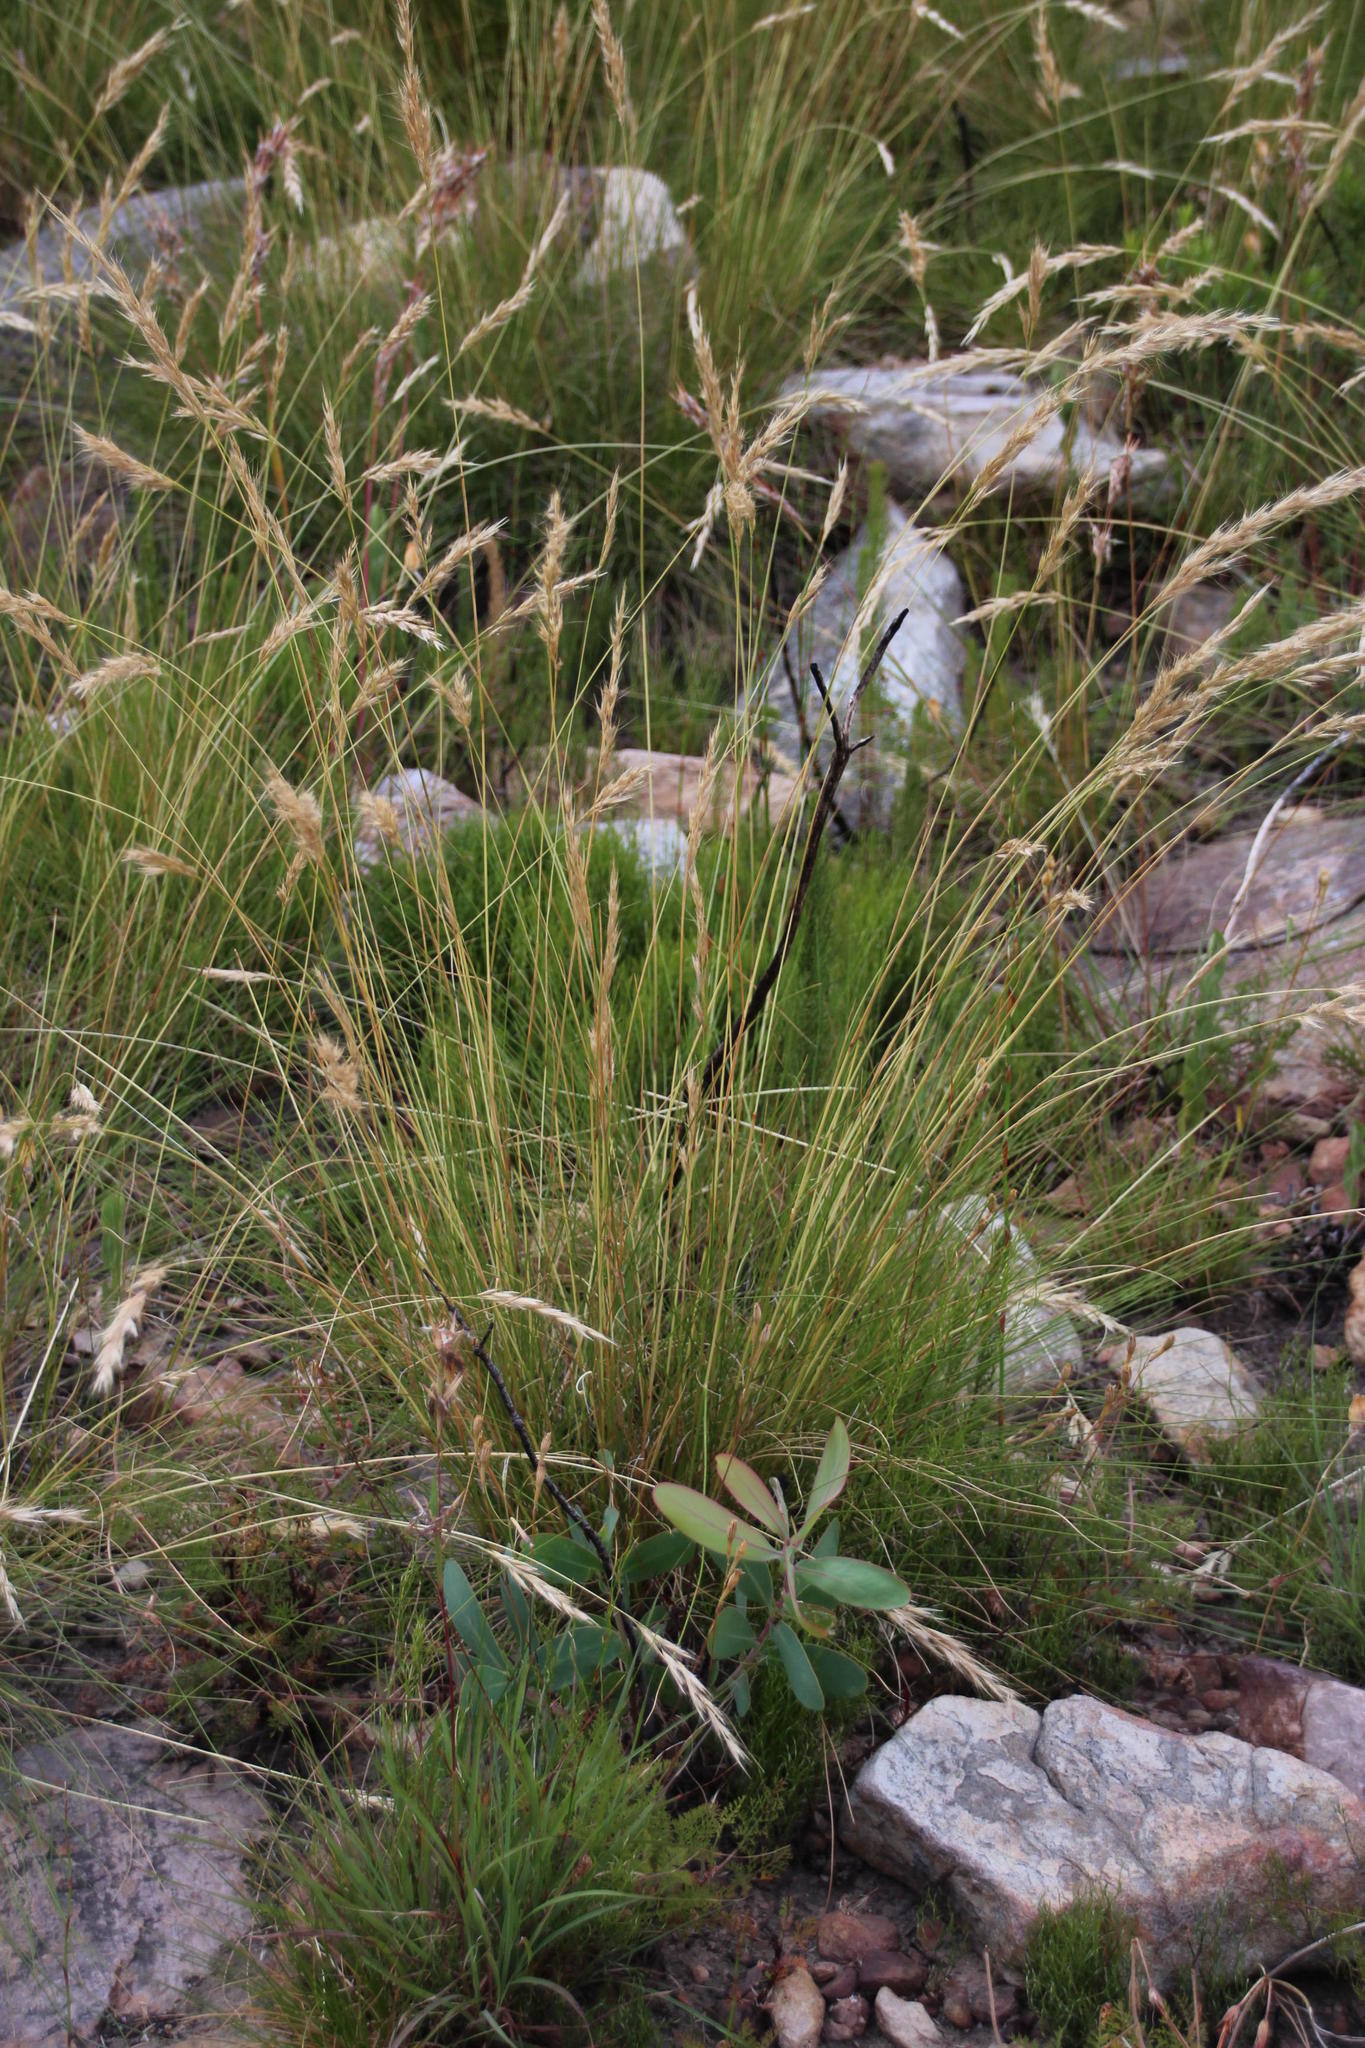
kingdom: Plantae
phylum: Tracheophyta
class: Liliopsida
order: Poales
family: Poaceae
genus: Tenaxia
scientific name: Tenaxia stricta
